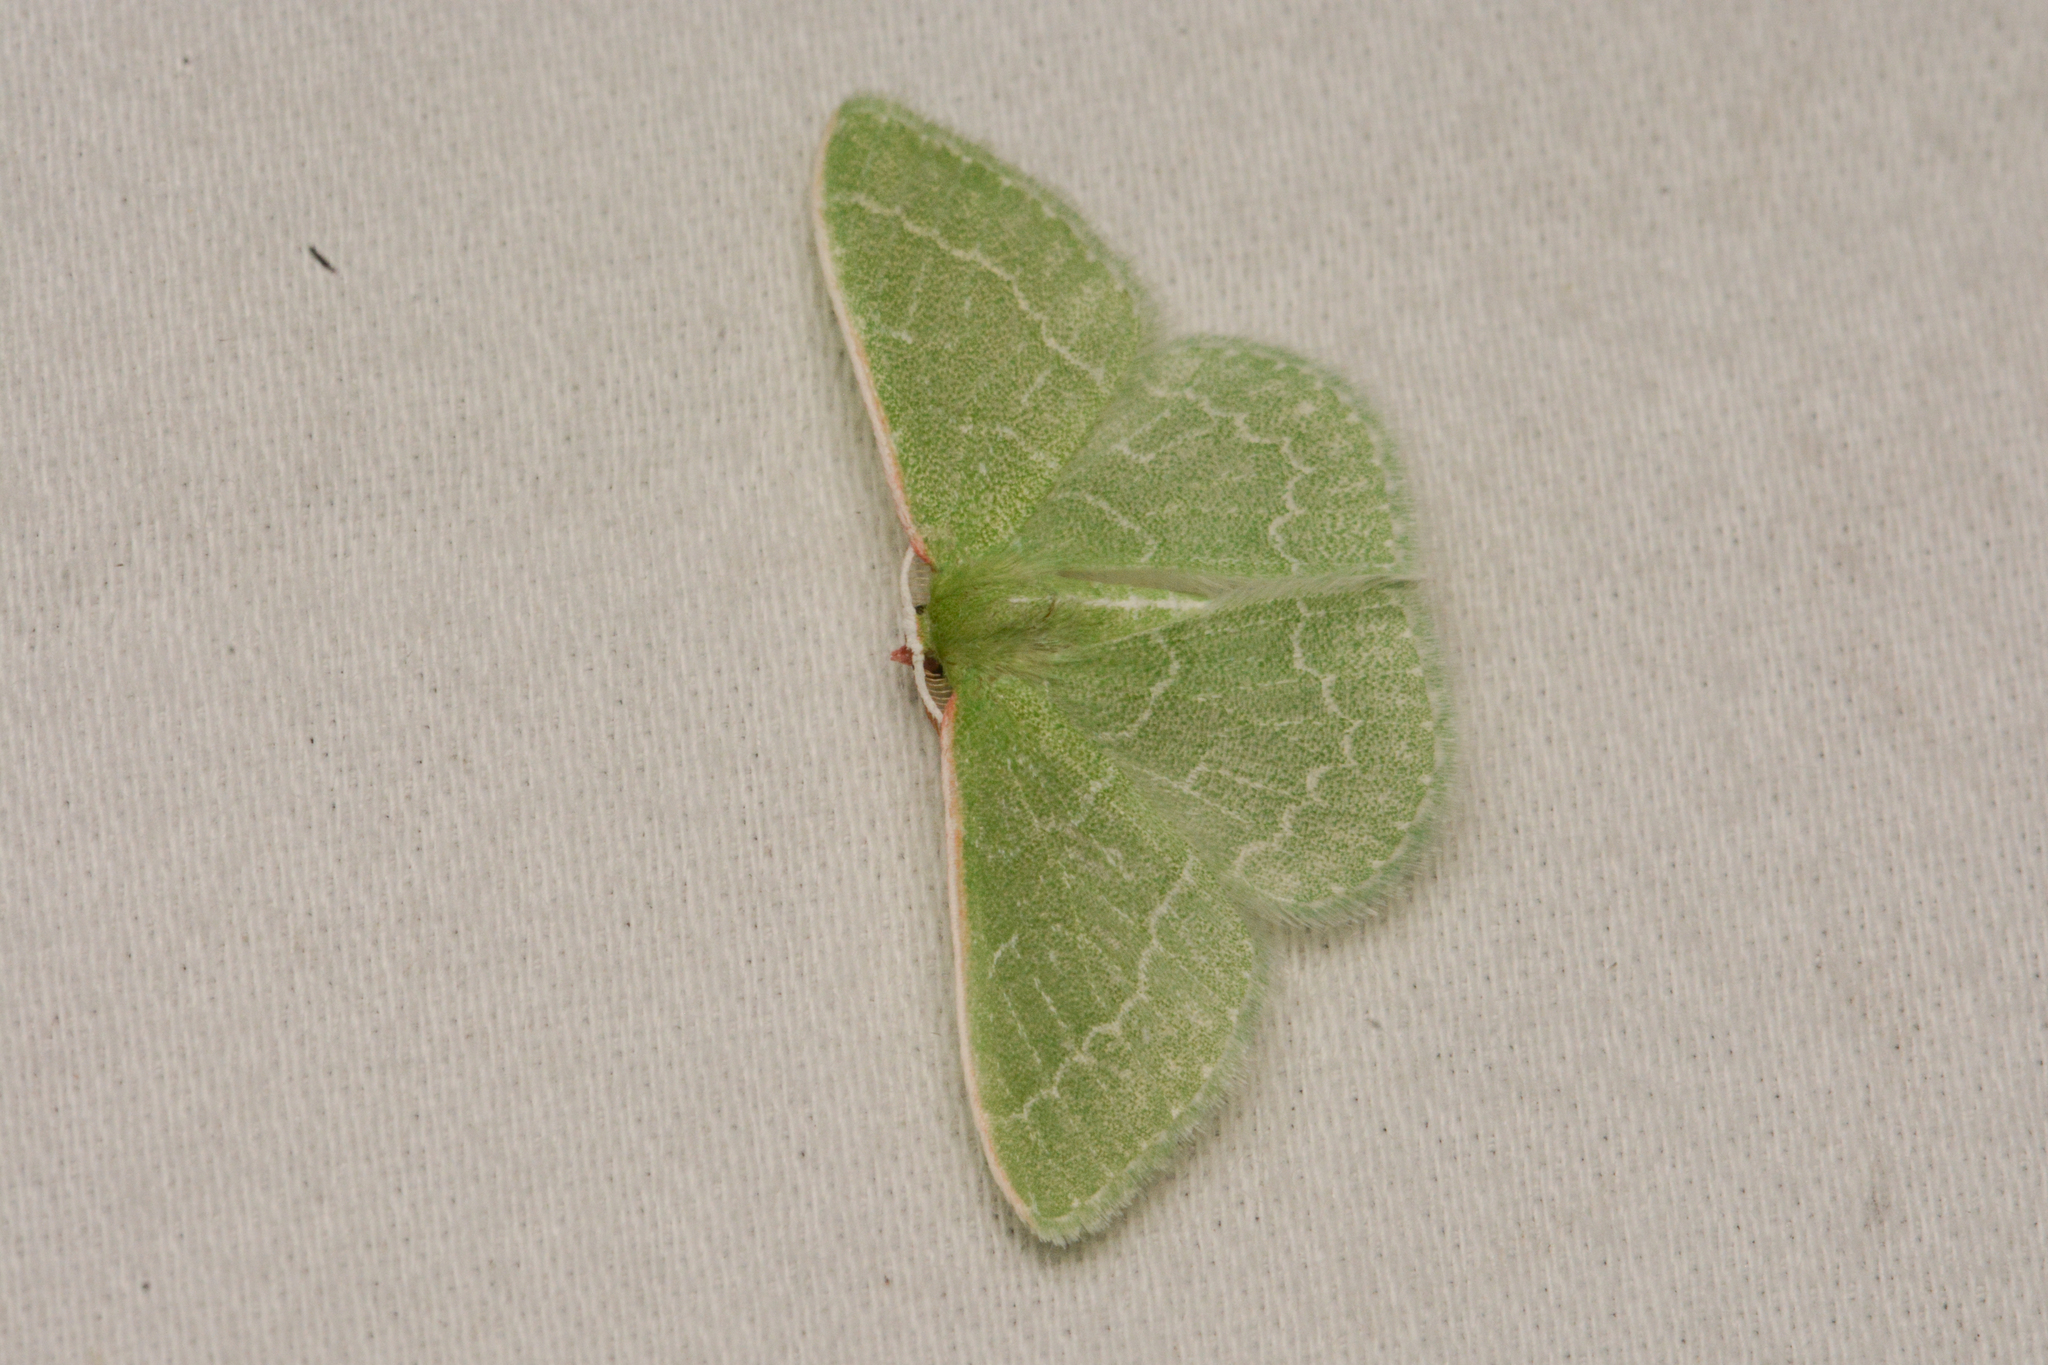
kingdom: Animalia
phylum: Arthropoda
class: Insecta
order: Lepidoptera
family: Geometridae
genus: Synchlora
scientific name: Synchlora aerata
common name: Wavy-lined emerald
